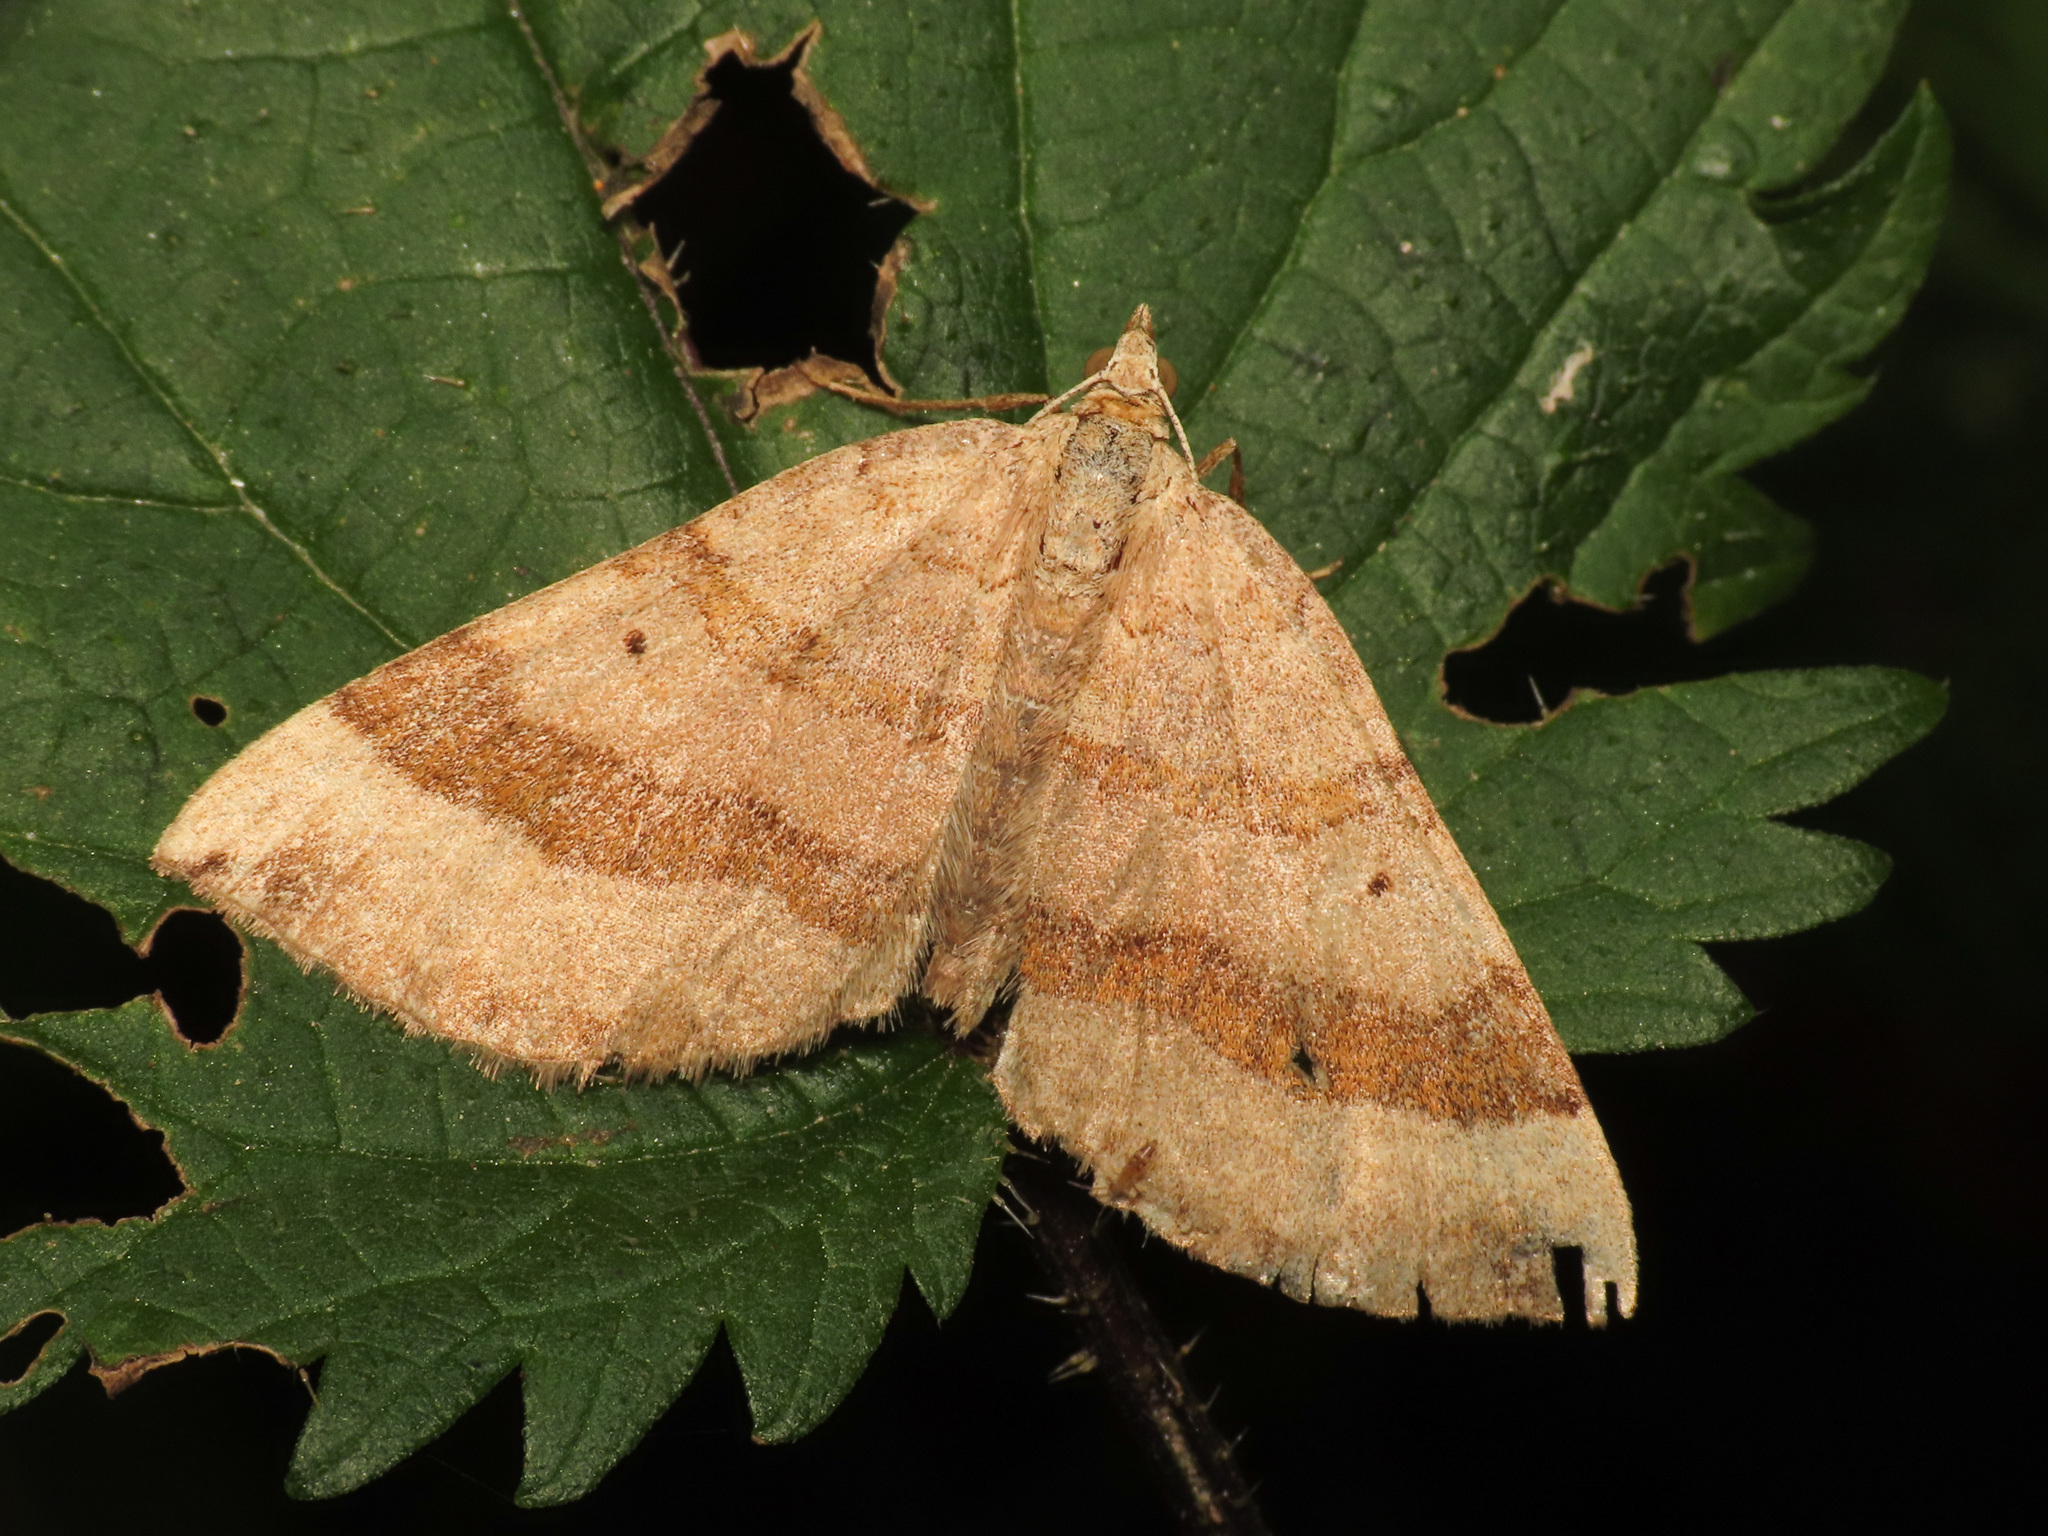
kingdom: Animalia
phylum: Arthropoda
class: Insecta
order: Lepidoptera
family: Geometridae
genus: Scotopteryx
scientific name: Scotopteryx chenopodiata
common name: Shaded broad-bar
